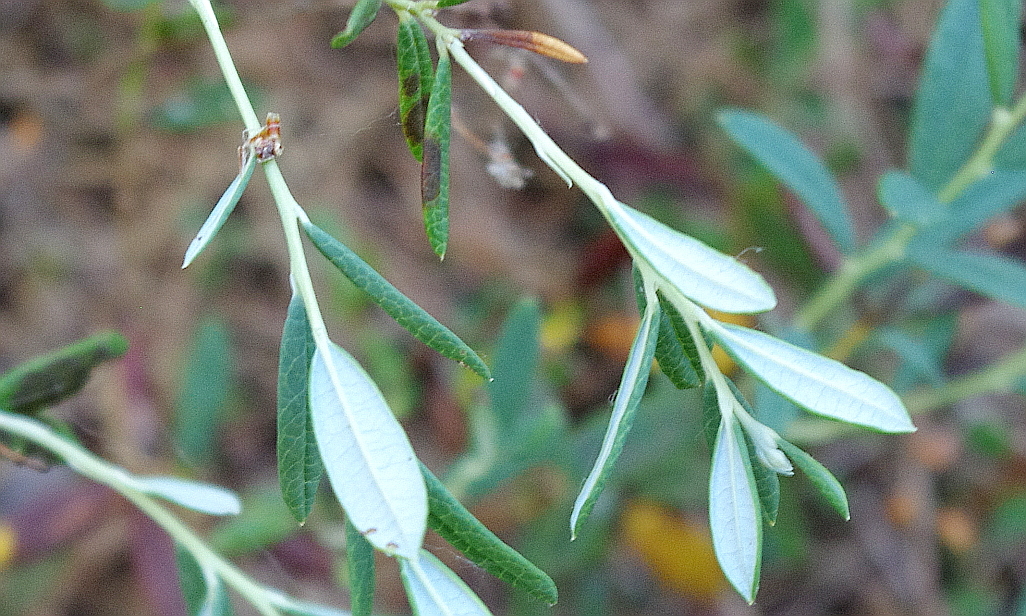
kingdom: Plantae
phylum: Tracheophyta
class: Magnoliopsida
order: Ericales
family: Ericaceae
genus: Andromeda
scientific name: Andromeda polifolia
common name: Bog-rosemary
